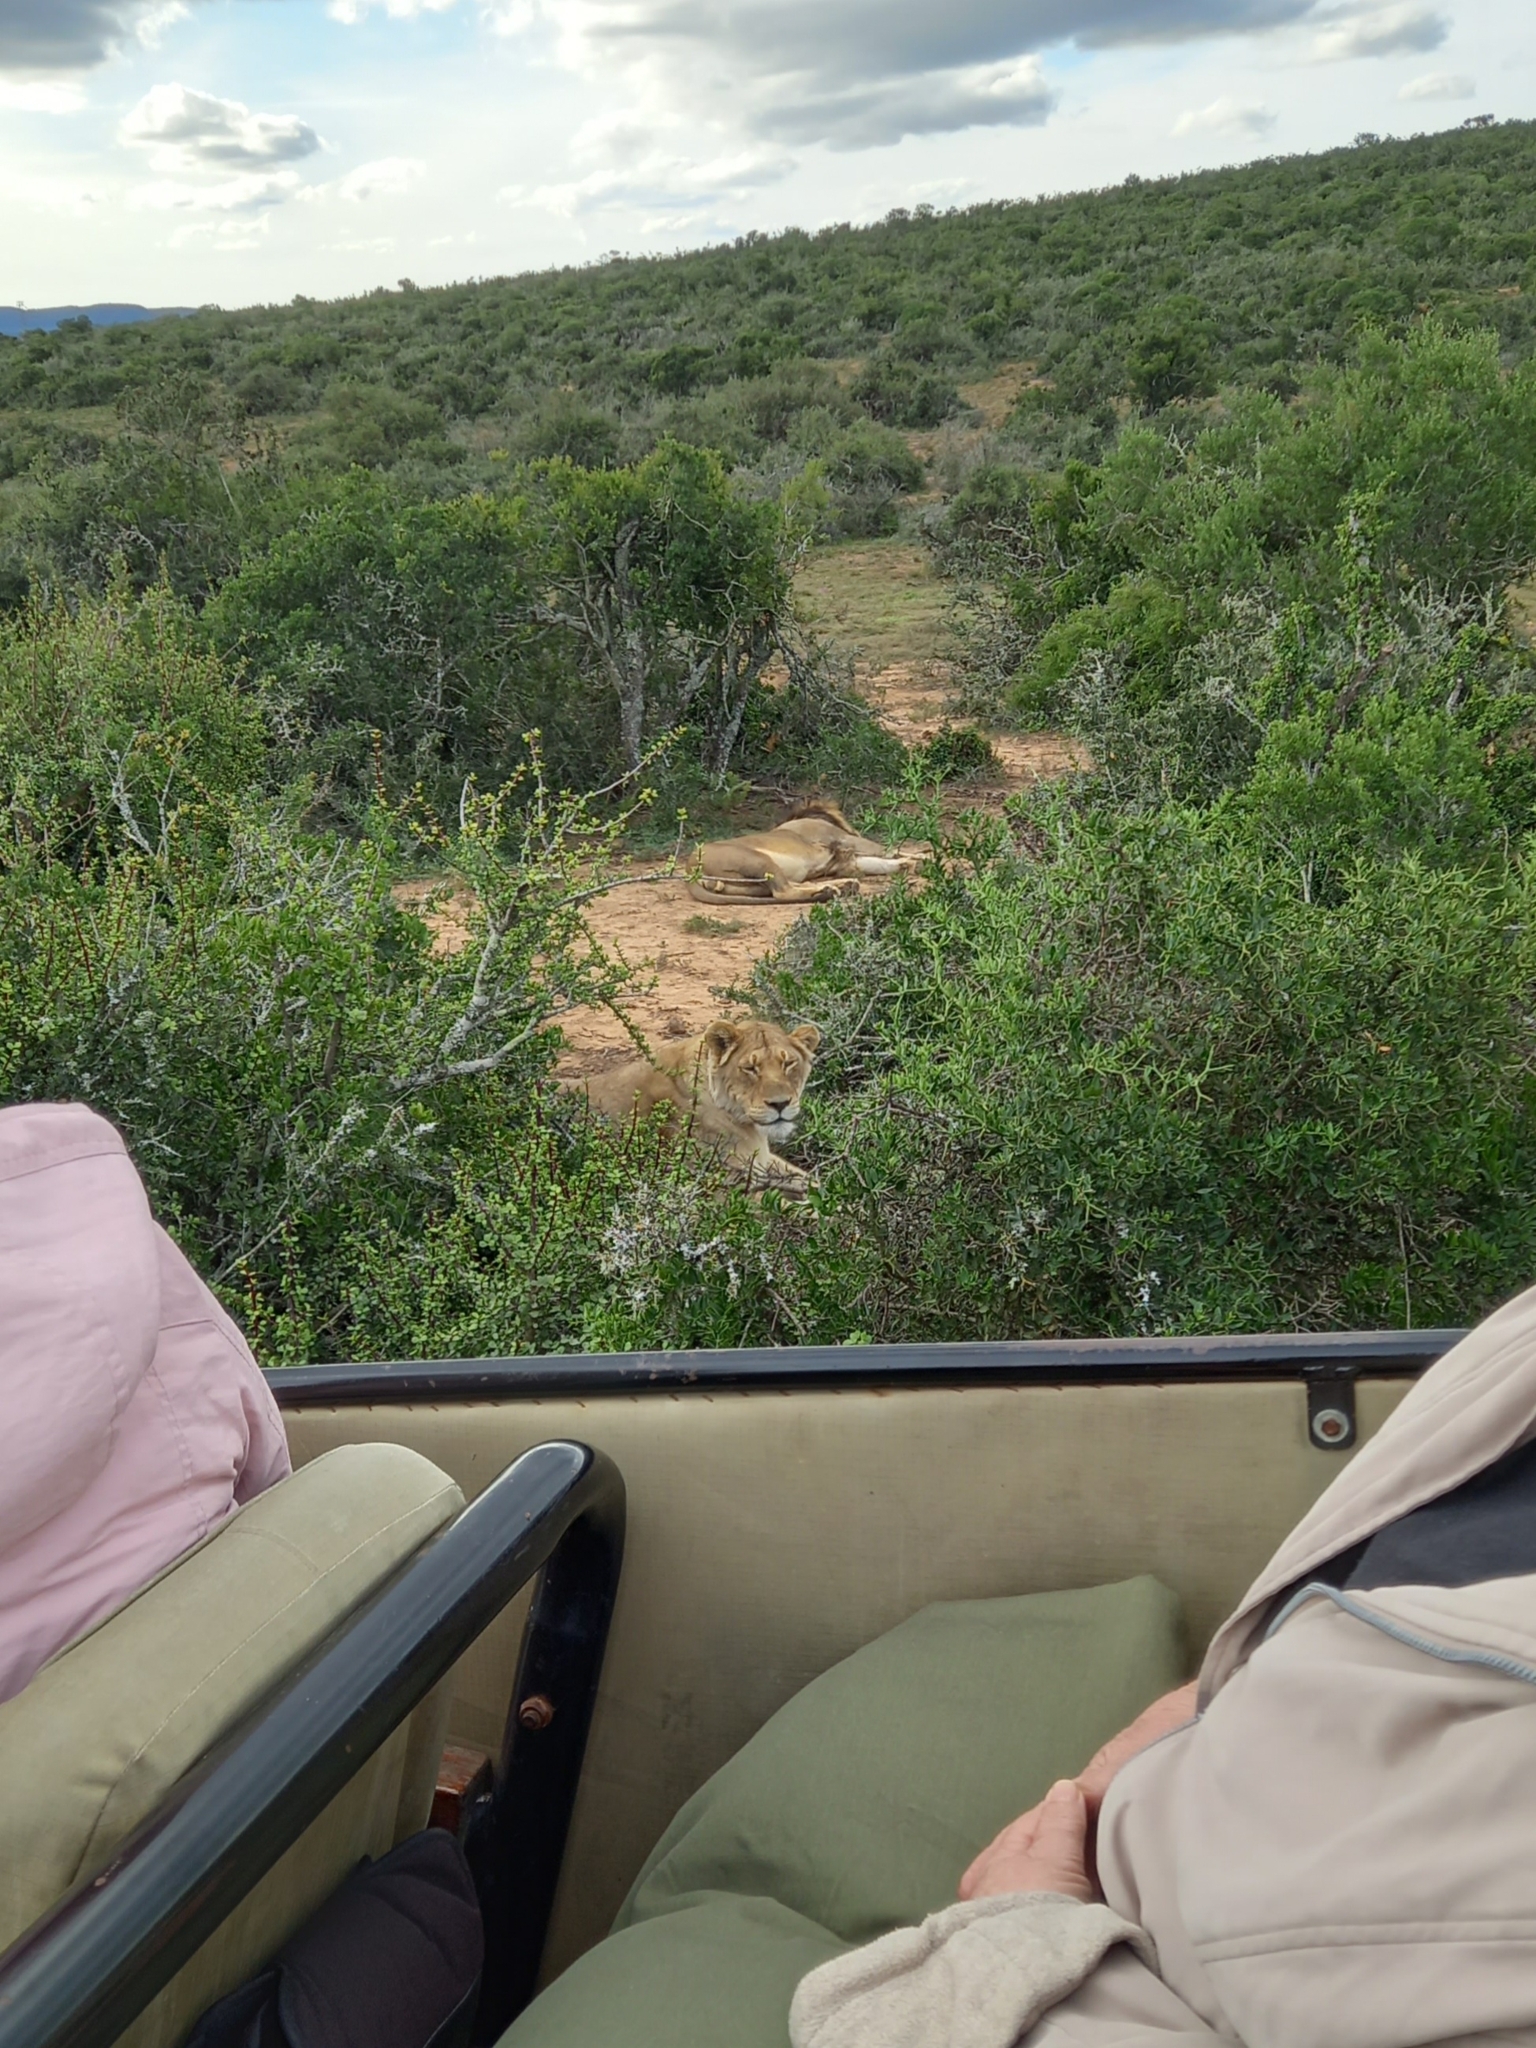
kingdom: Animalia
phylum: Chordata
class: Mammalia
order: Carnivora
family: Felidae
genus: Panthera
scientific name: Panthera leo
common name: Lion
